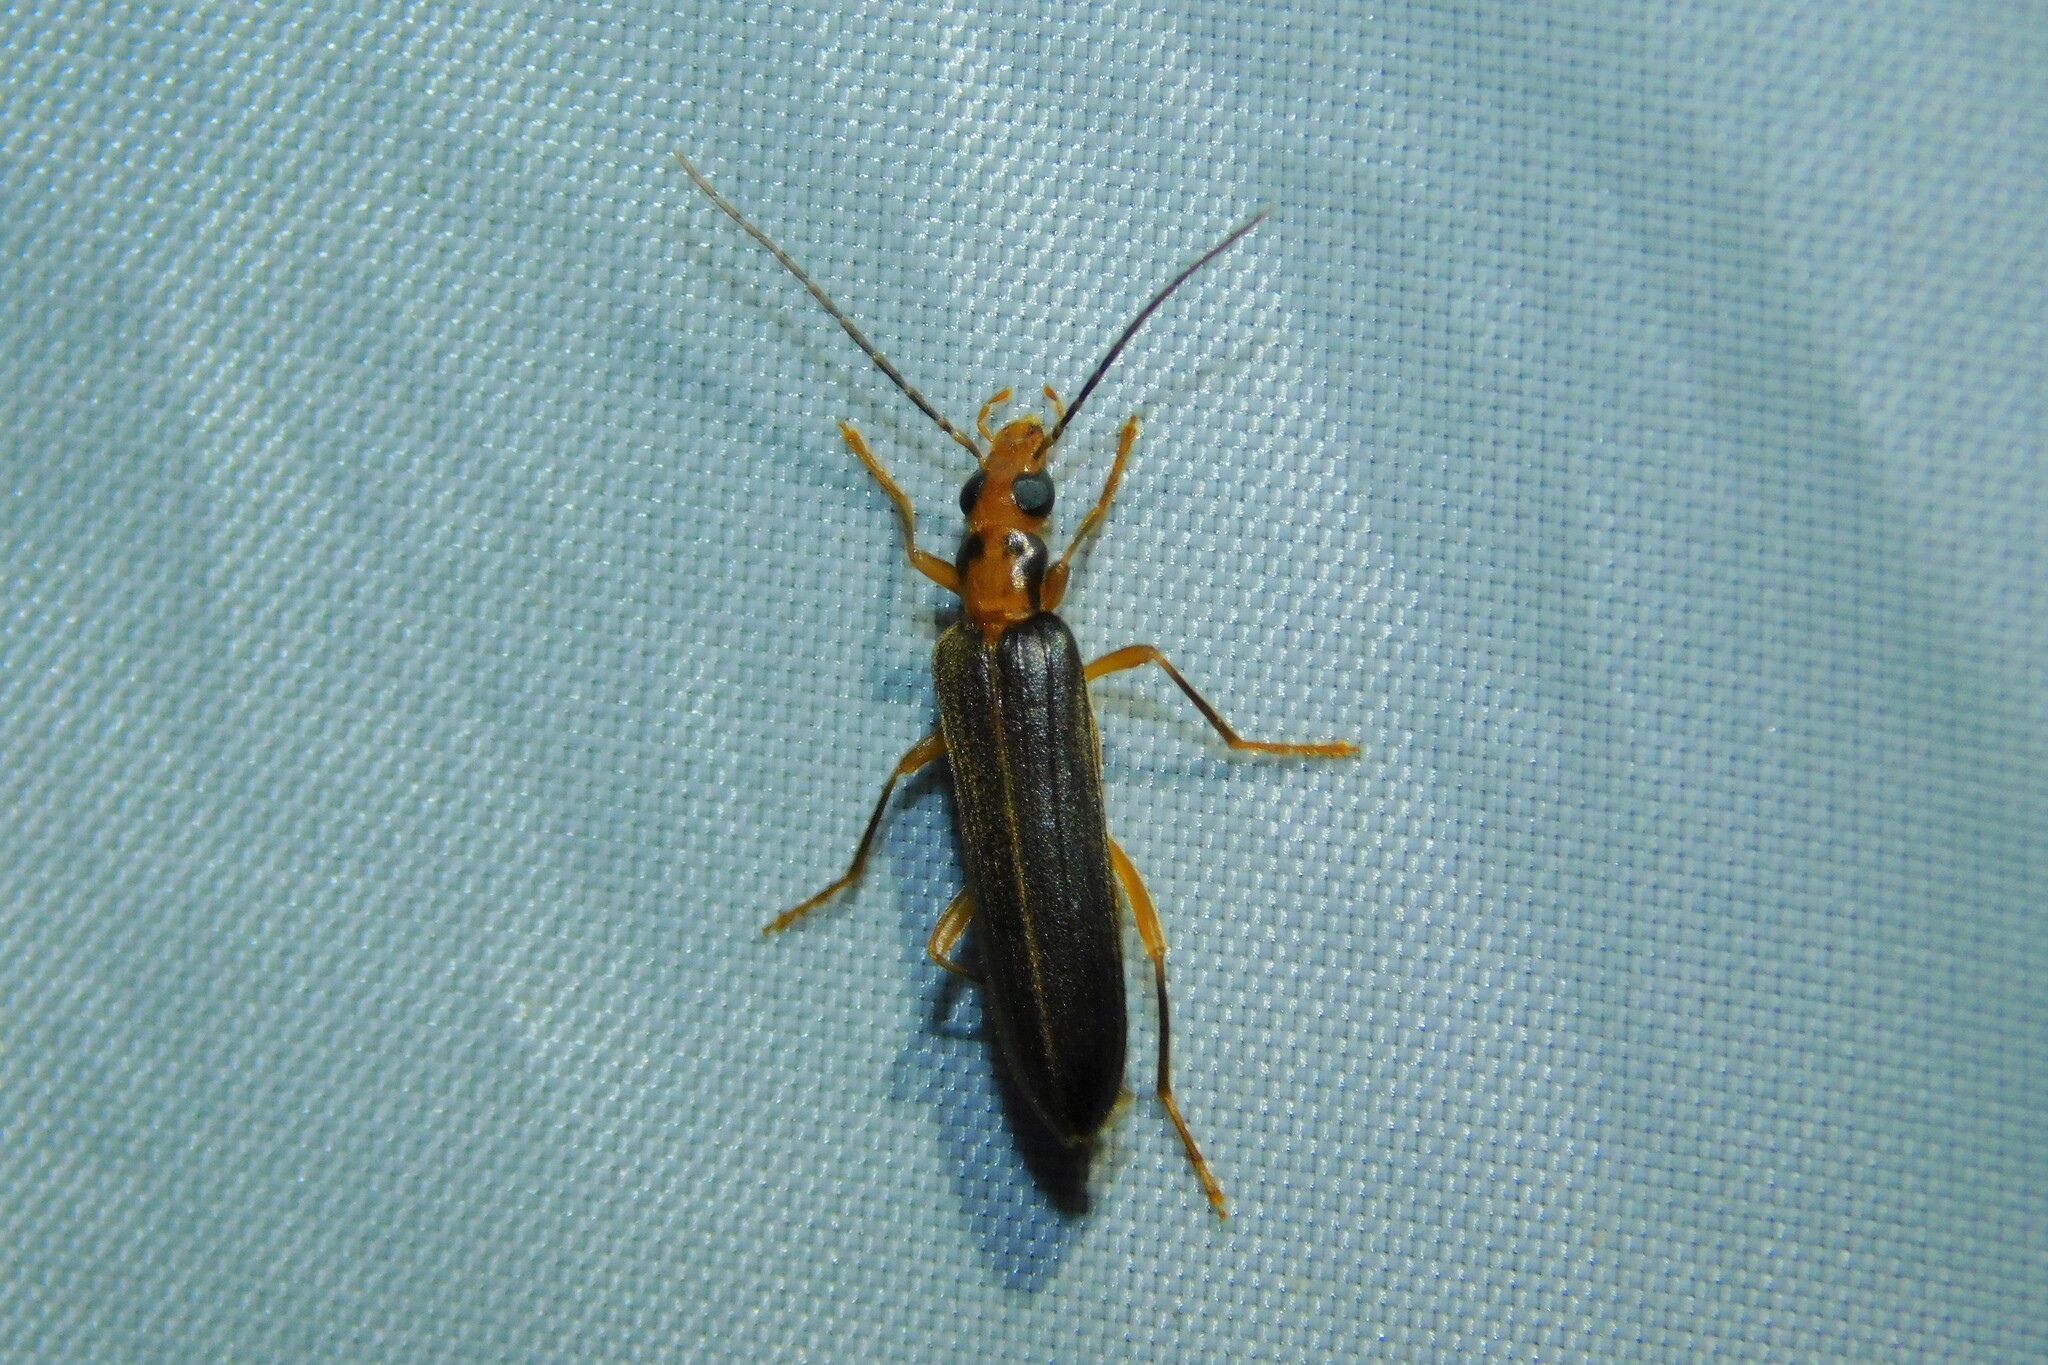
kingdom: Animalia
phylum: Arthropoda
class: Insecta
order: Coleoptera
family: Oedemeridae
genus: Nacerdes
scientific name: Nacerdes carniolica
